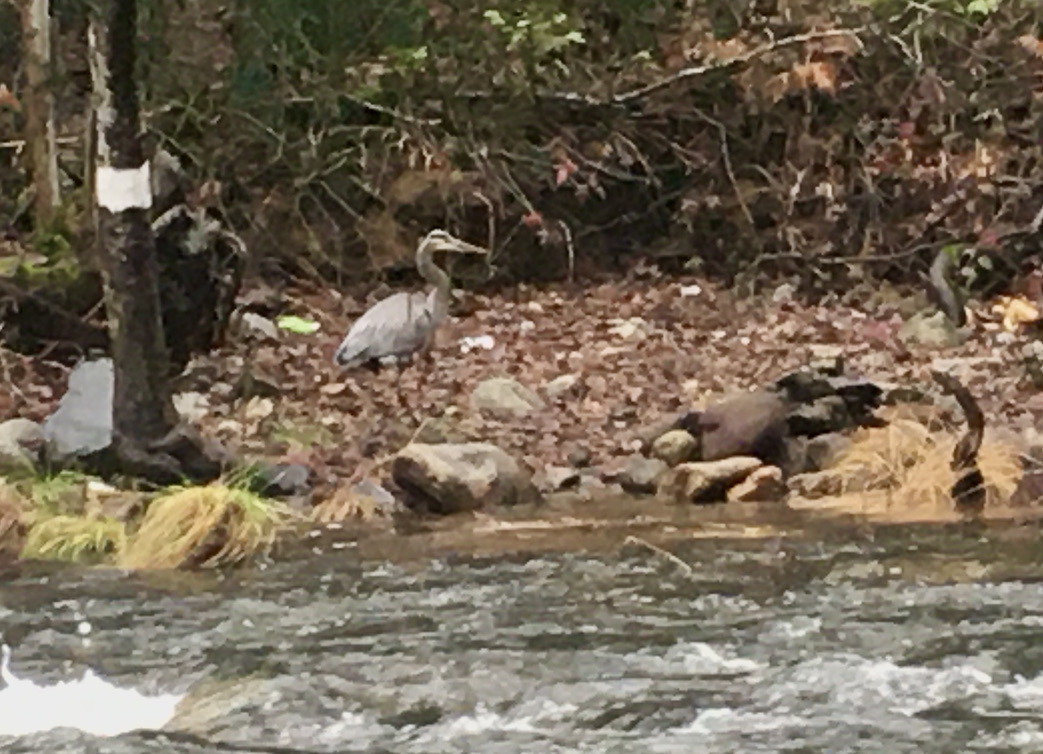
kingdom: Animalia
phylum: Chordata
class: Aves
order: Pelecaniformes
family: Ardeidae
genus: Ardea
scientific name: Ardea herodias
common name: Great blue heron
